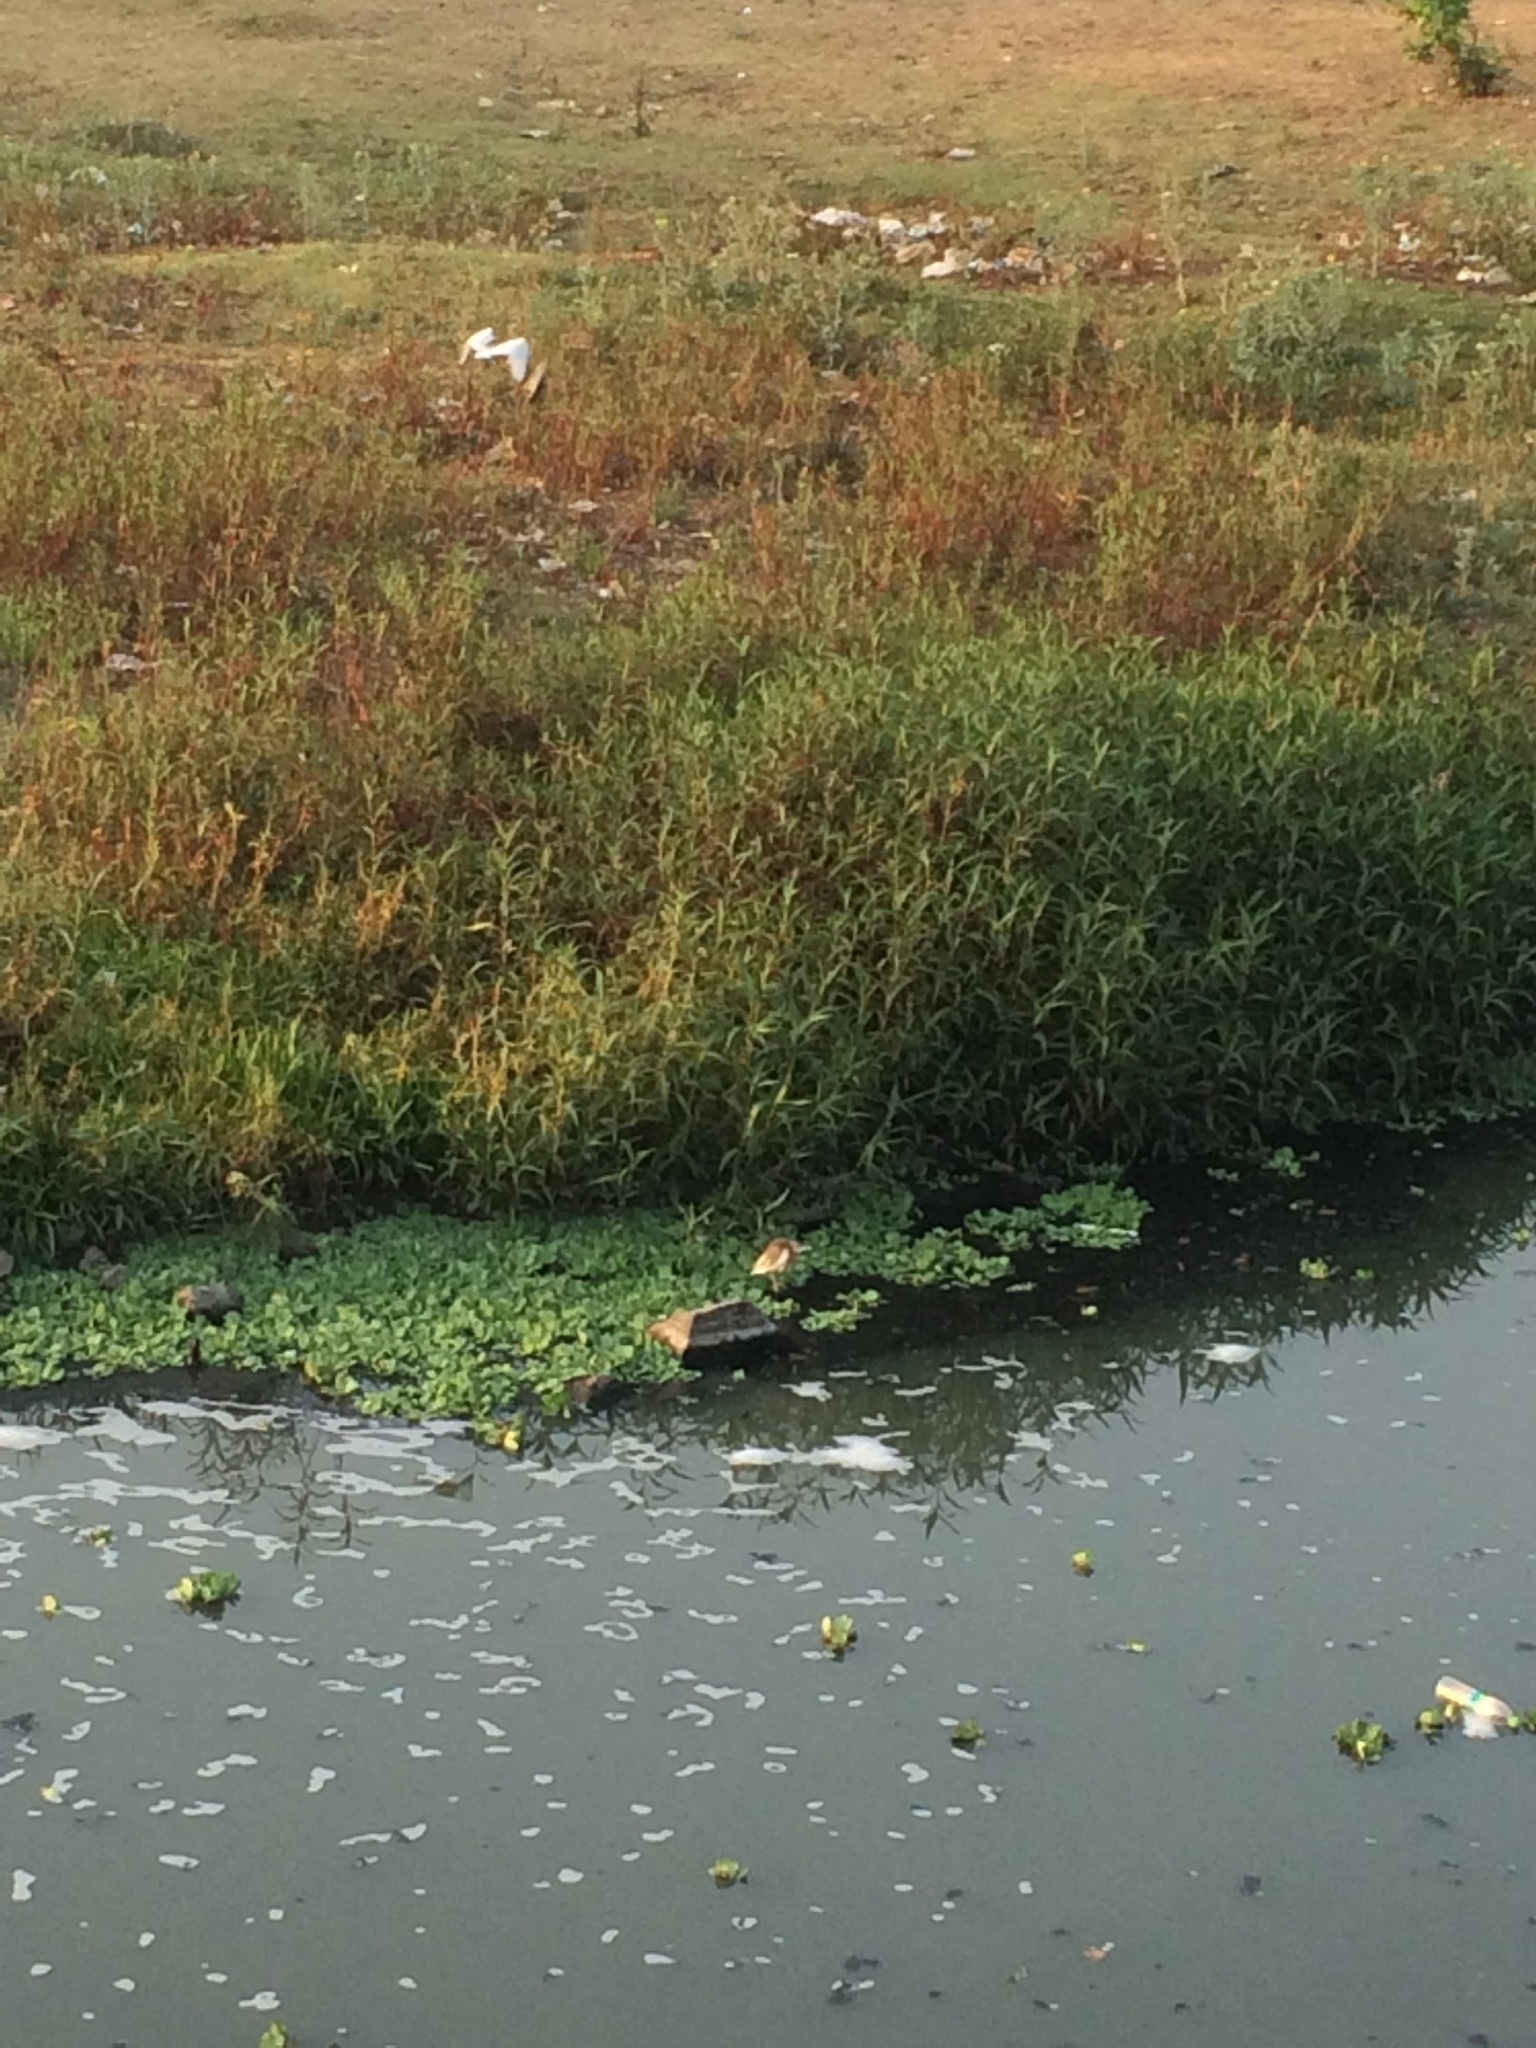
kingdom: Animalia
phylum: Chordata
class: Aves
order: Pelecaniformes
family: Ardeidae
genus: Ardeola
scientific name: Ardeola grayii
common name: Indian pond heron
